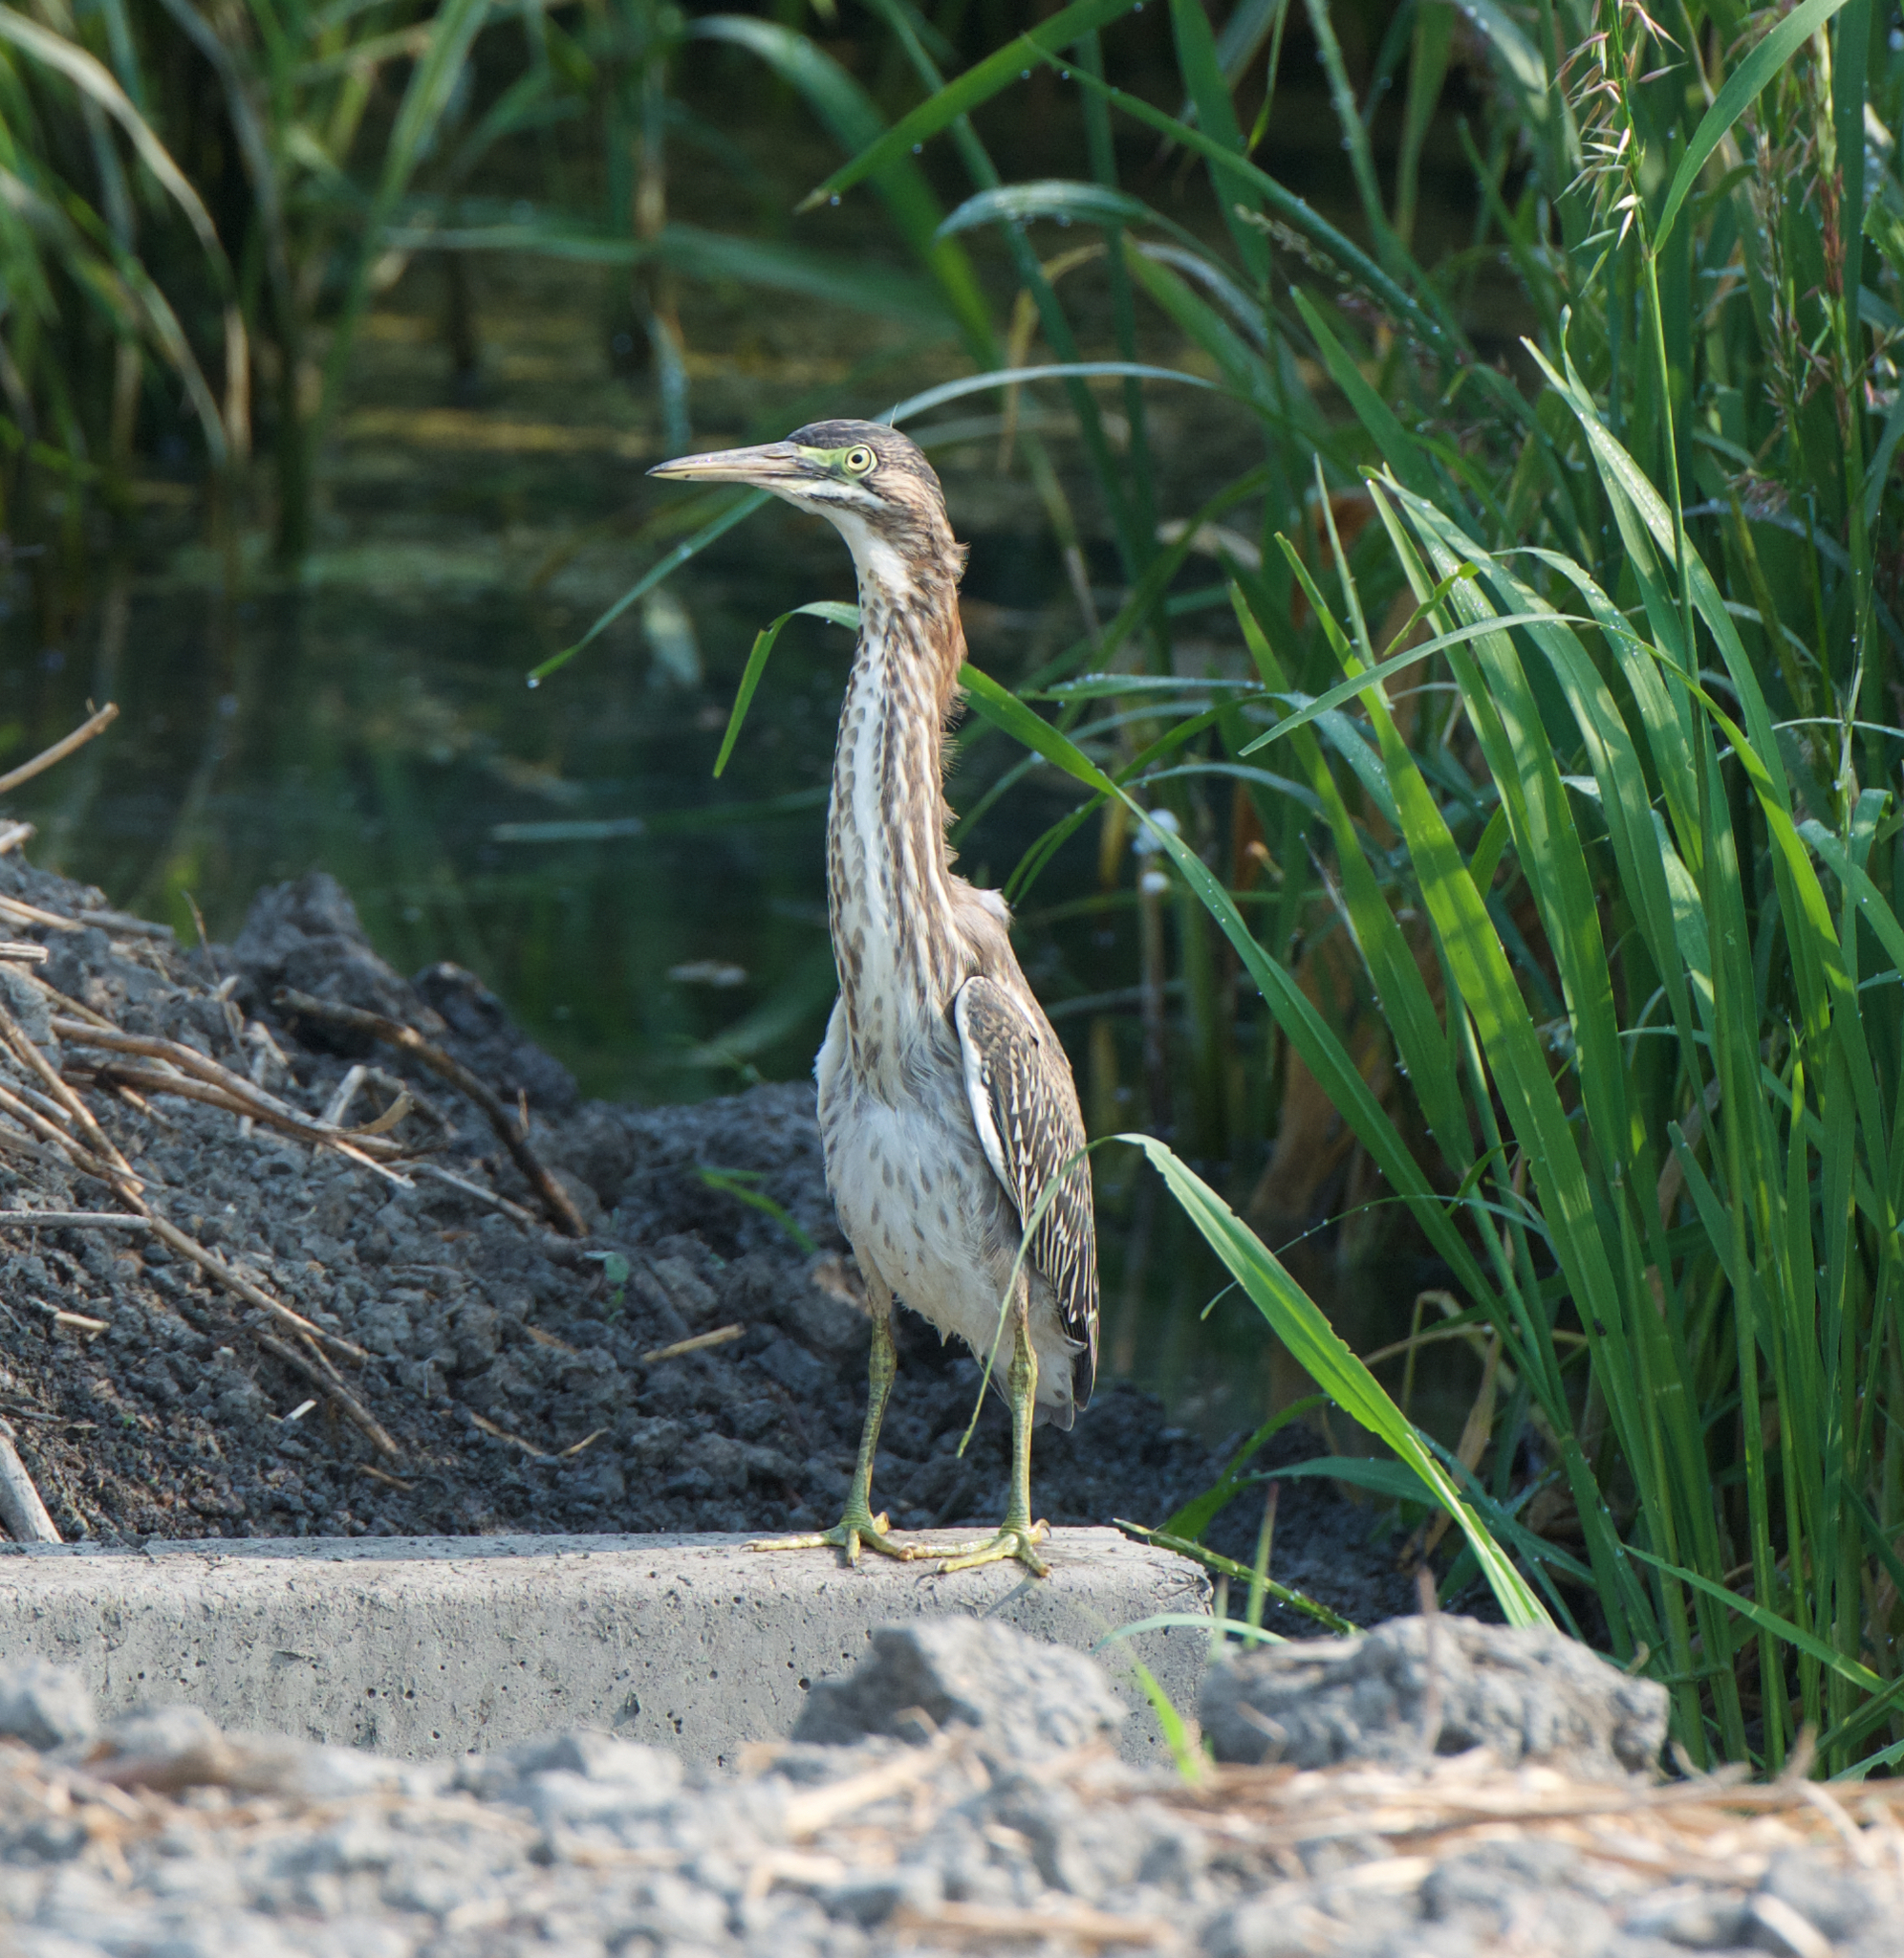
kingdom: Animalia
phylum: Chordata
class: Aves
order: Pelecaniformes
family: Ardeidae
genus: Butorides
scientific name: Butorides virescens
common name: Green heron
